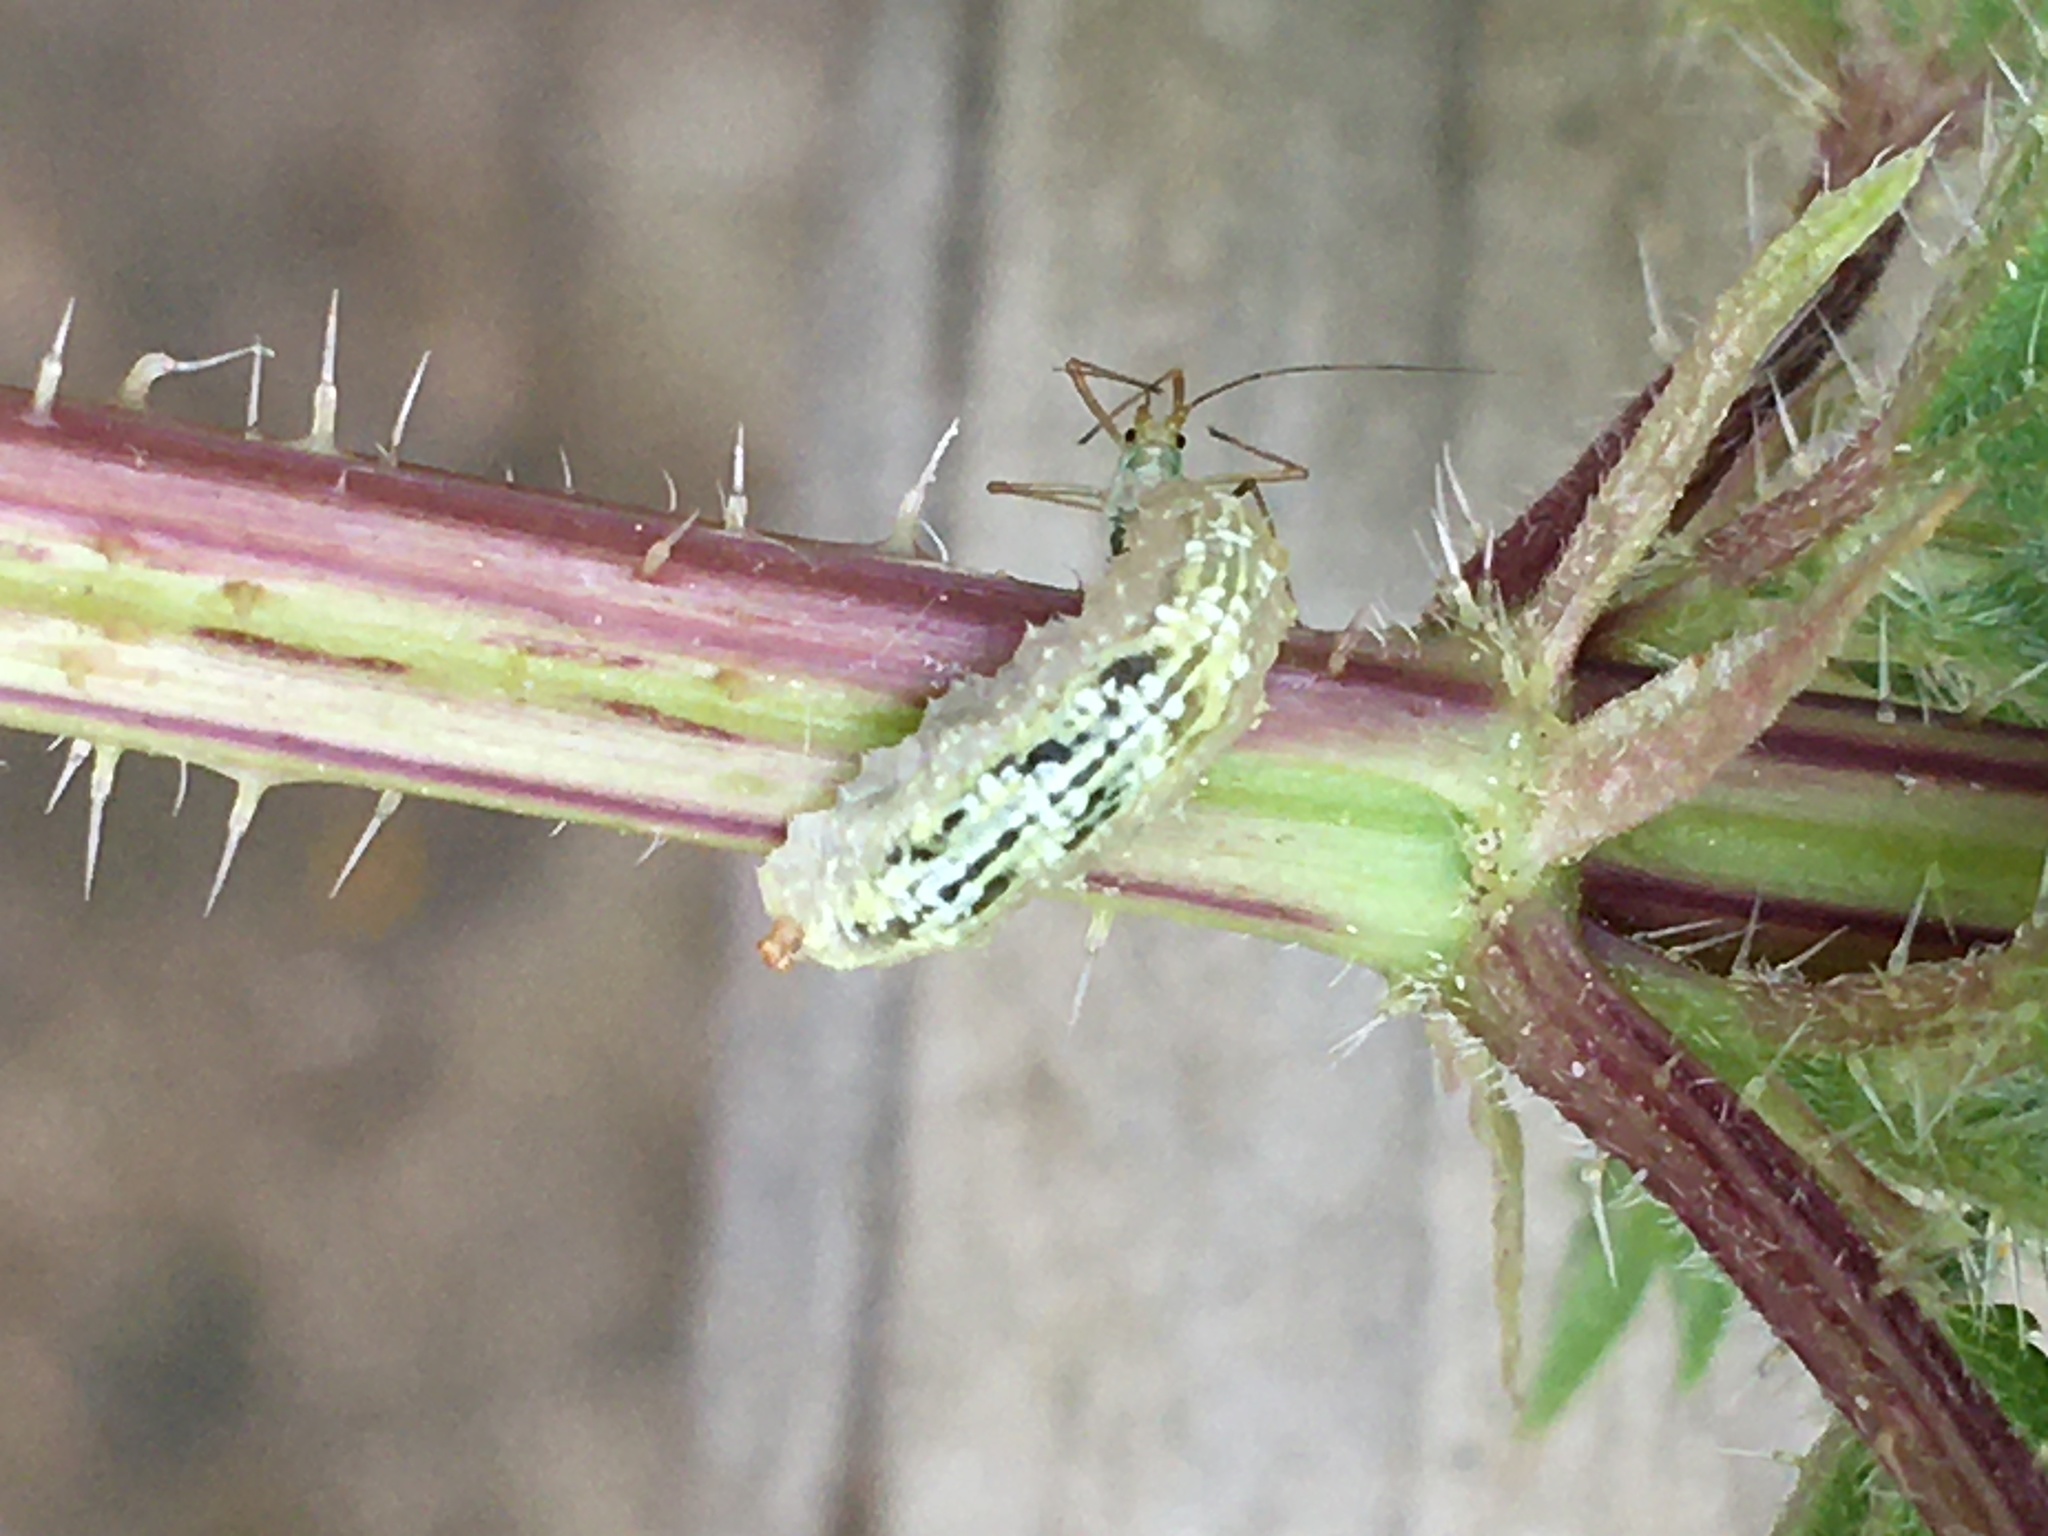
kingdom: Animalia
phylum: Arthropoda
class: Insecta
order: Diptera
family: Syrphidae
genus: Syrphus
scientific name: Syrphus
